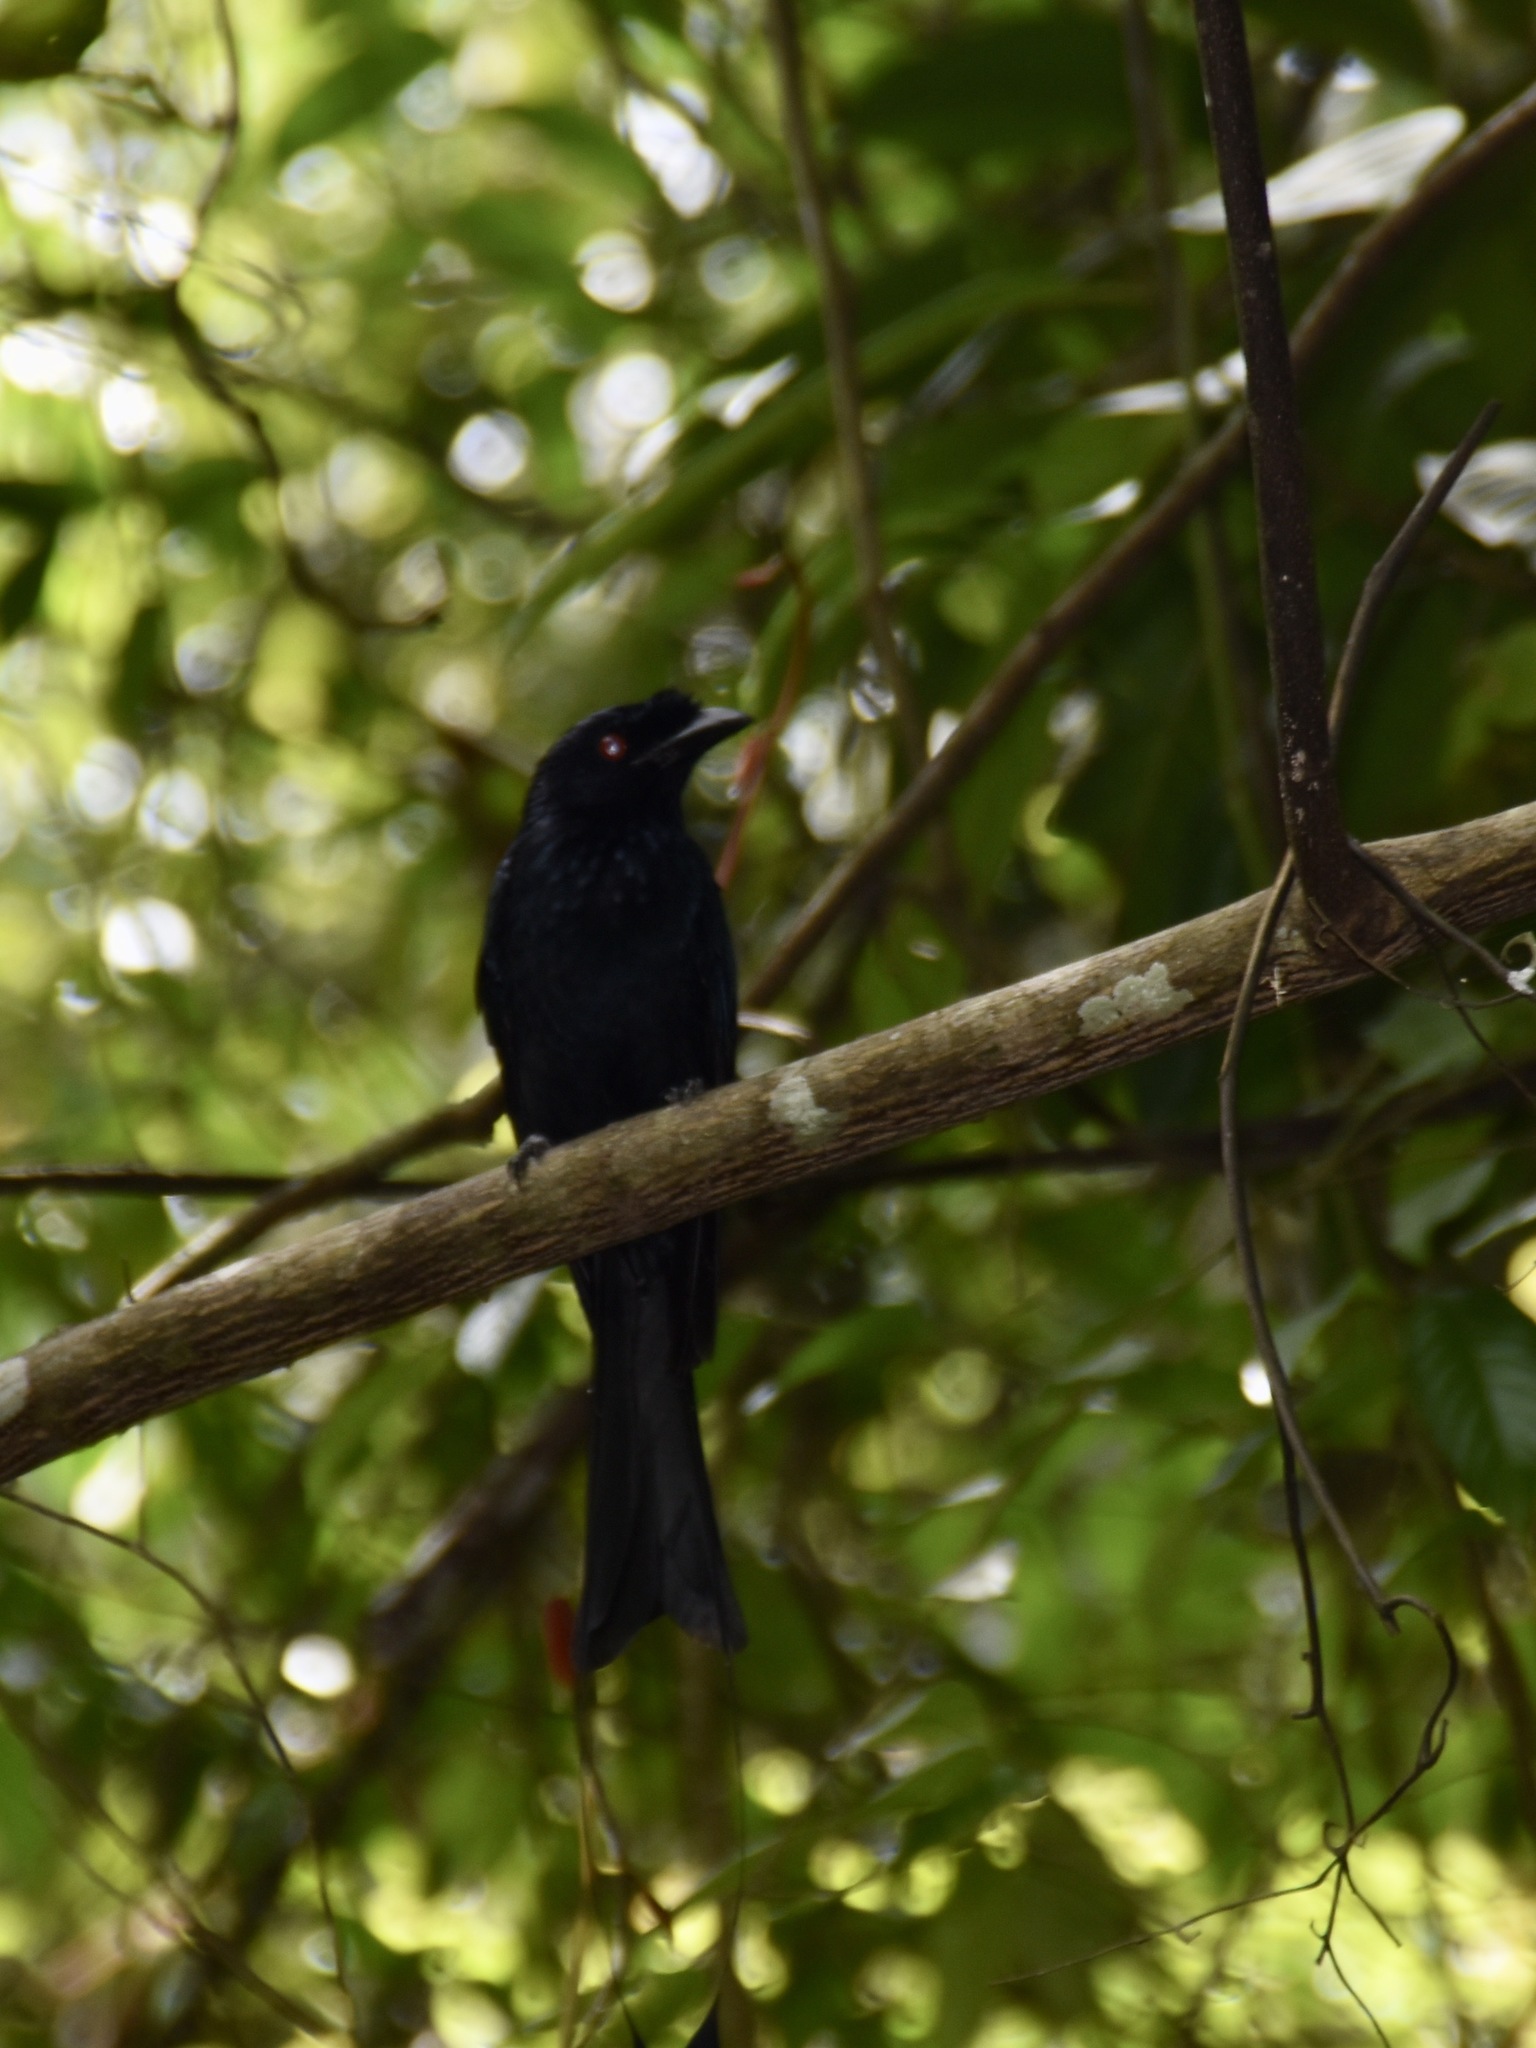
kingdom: Animalia
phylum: Chordata
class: Aves
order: Passeriformes
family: Dicruridae
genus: Dicrurus
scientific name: Dicrurus paradiseus
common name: Greater racket-tailed drongo
